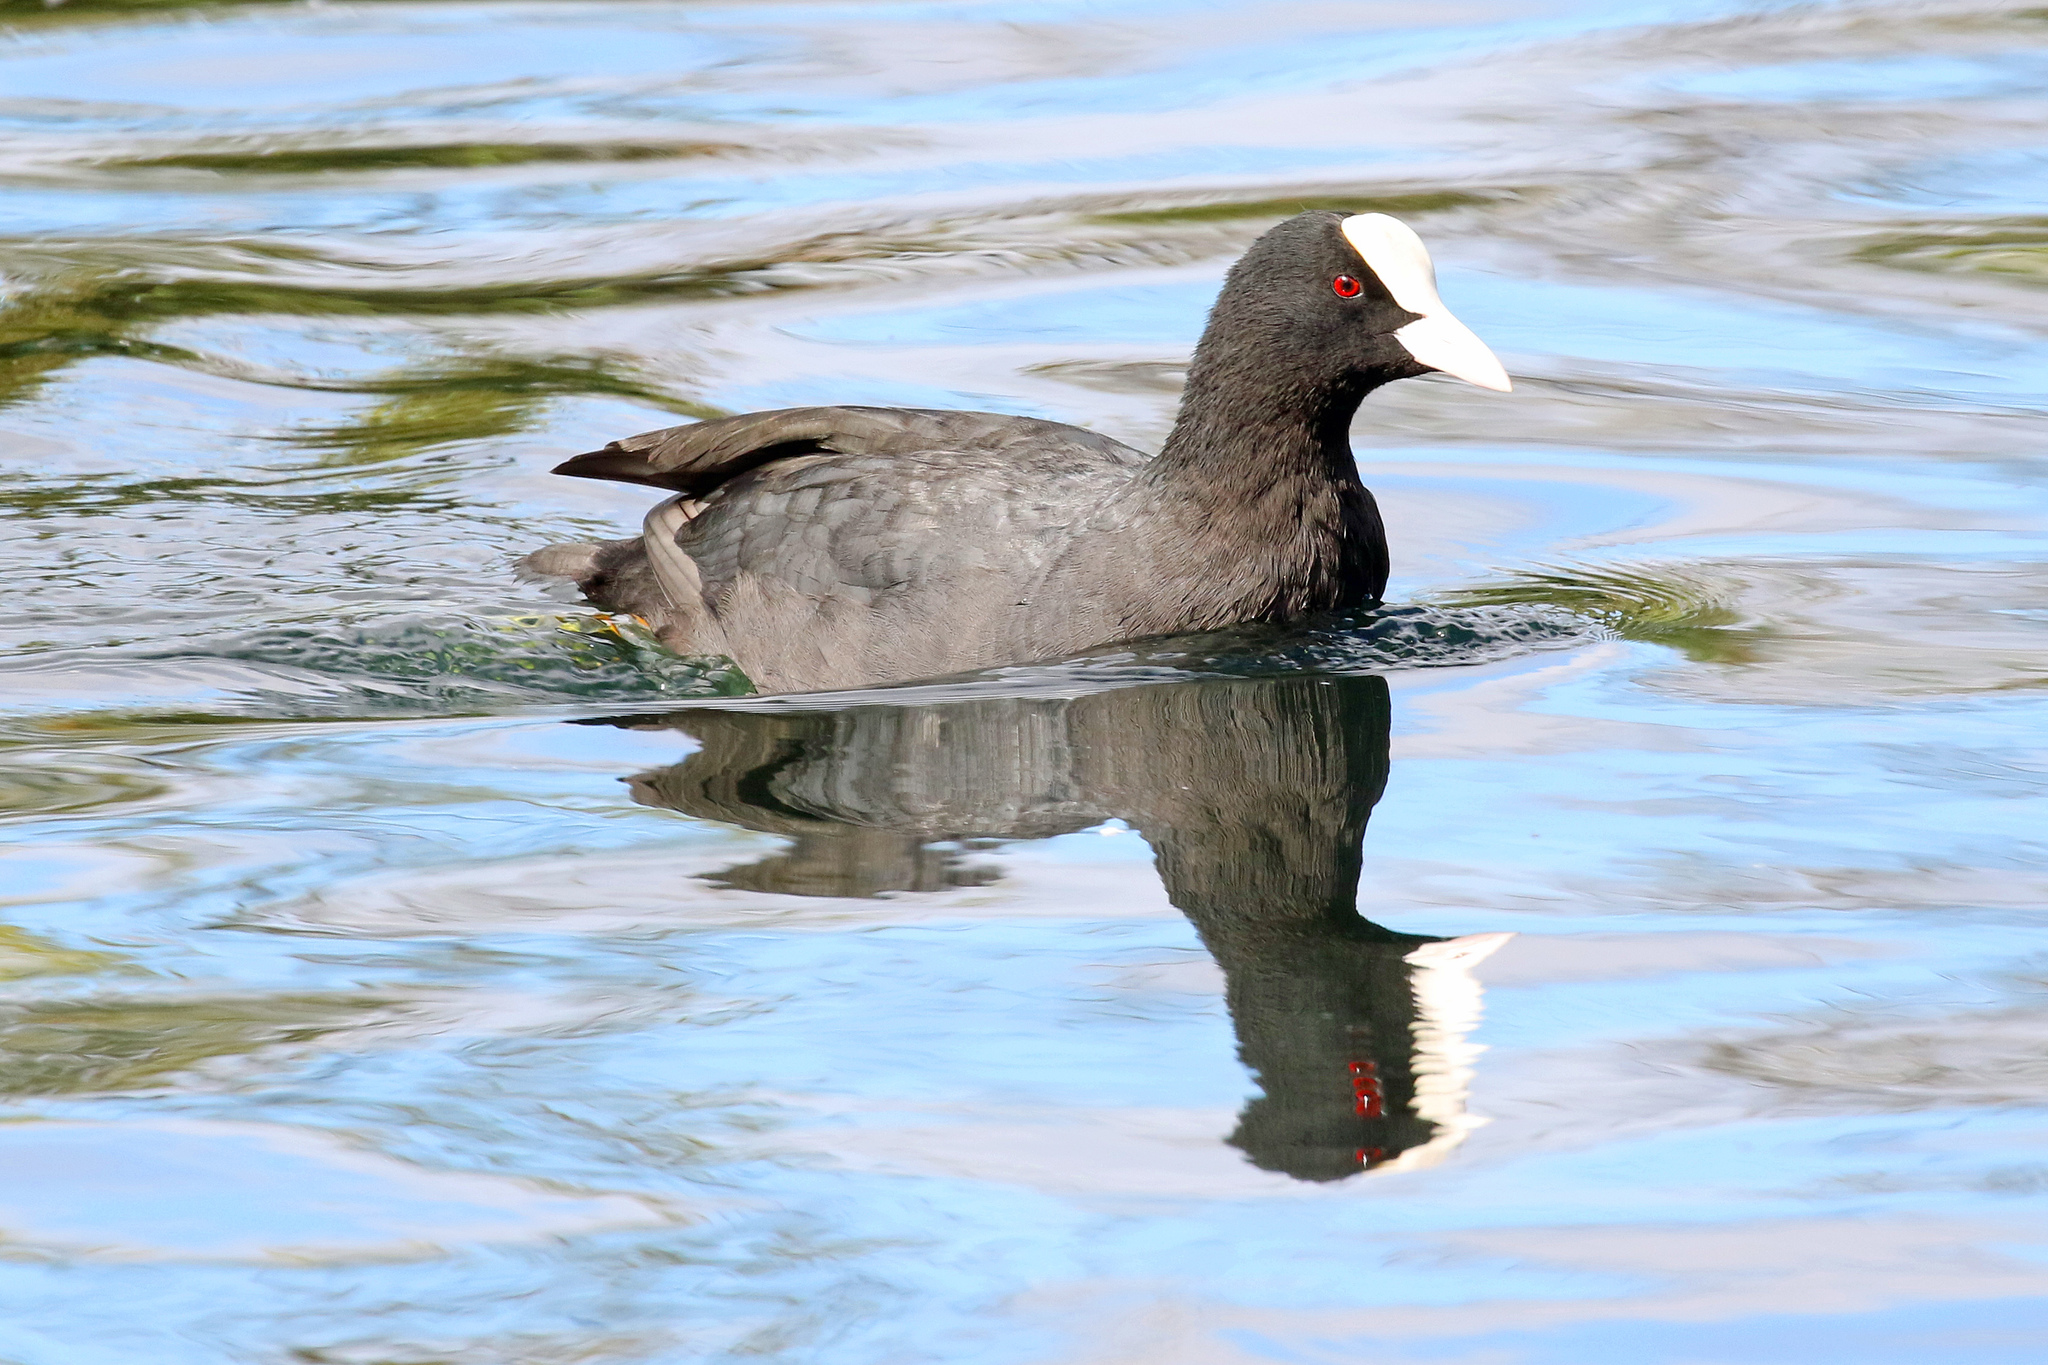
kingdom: Animalia
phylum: Chordata
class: Aves
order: Gruiformes
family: Rallidae
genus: Fulica
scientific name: Fulica atra
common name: Eurasian coot
